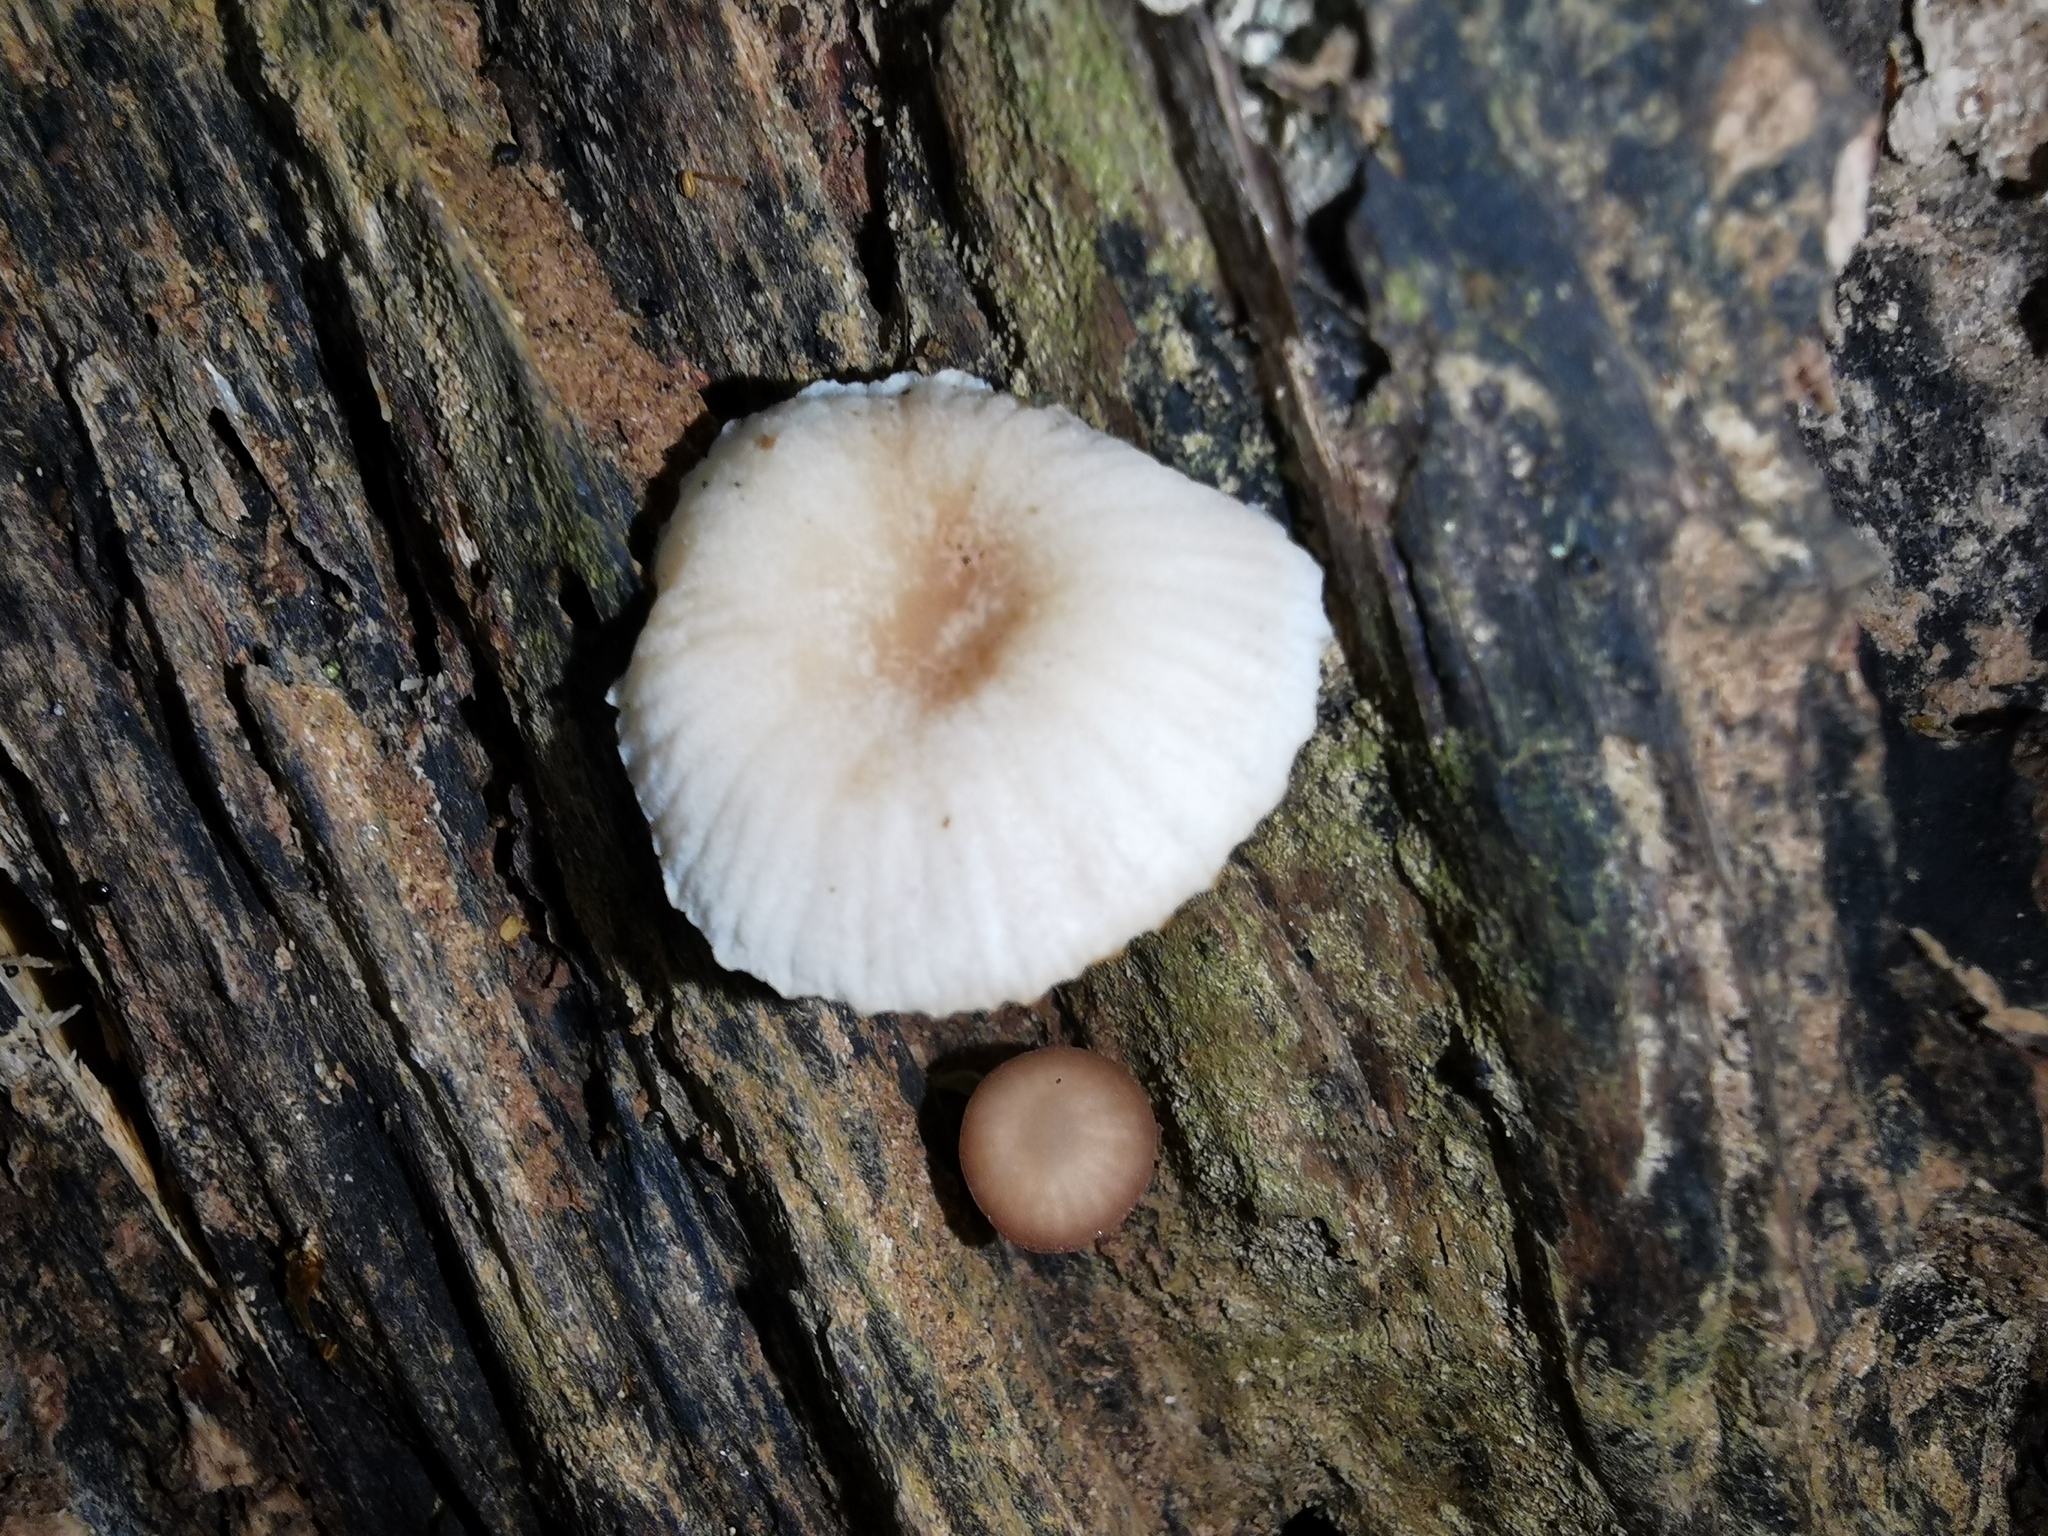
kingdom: Fungi
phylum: Basidiomycota
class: Agaricomycetes
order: Agaricales
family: Omphalotaceae
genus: Mycetinis
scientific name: Mycetinis curraniae
